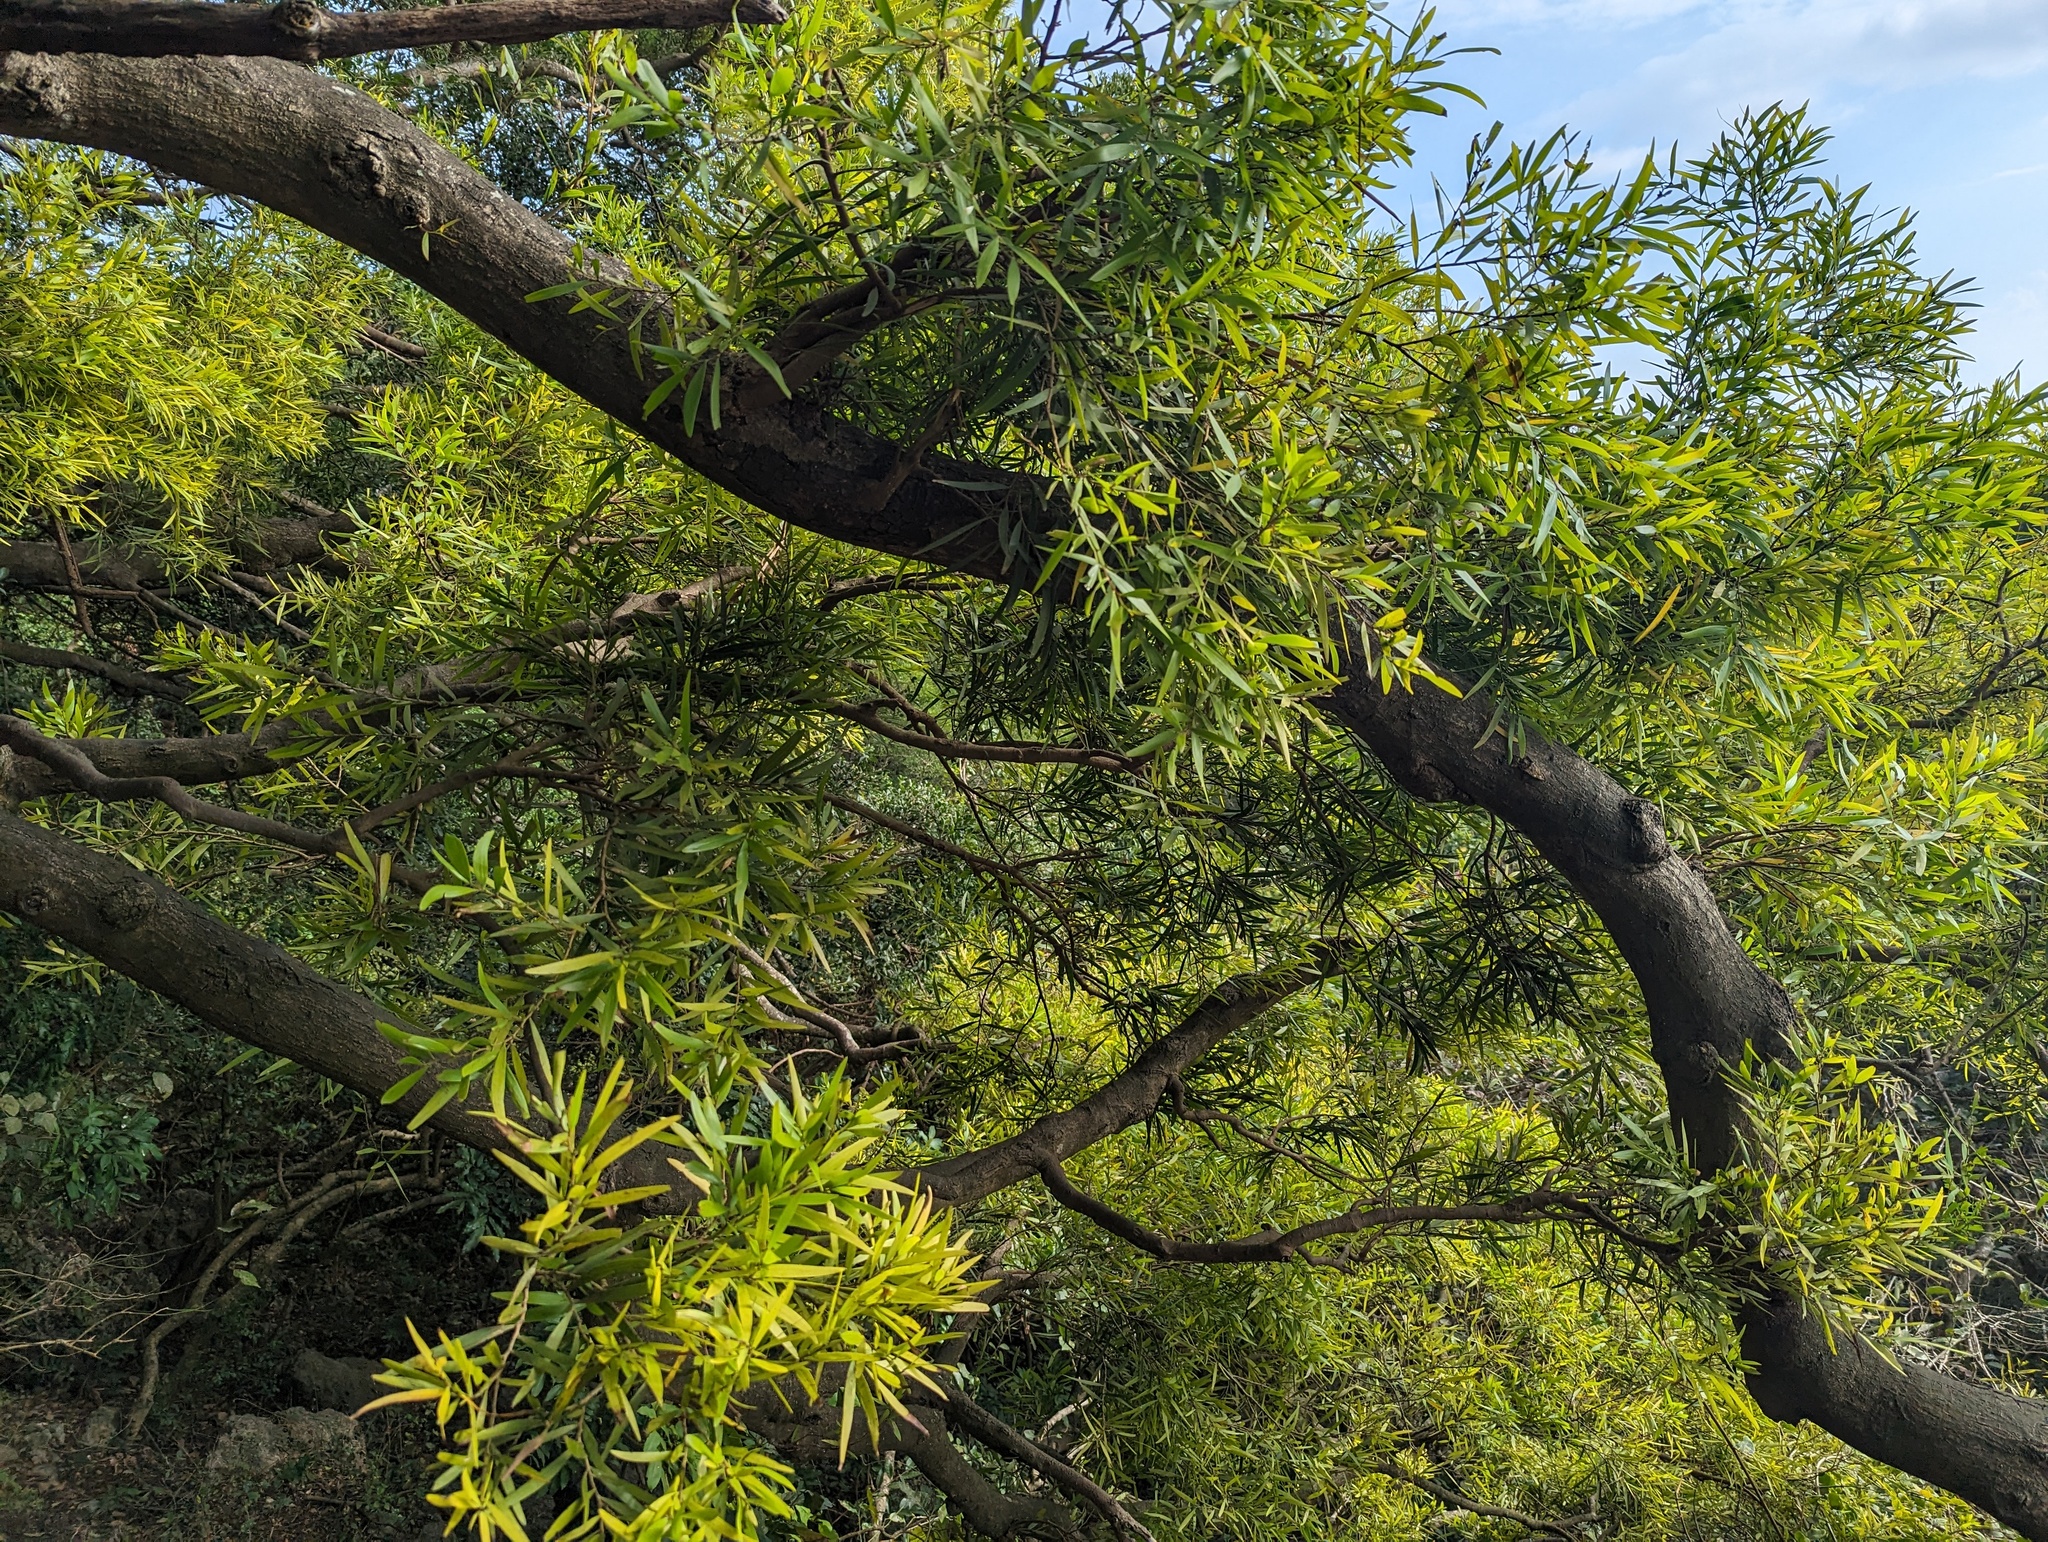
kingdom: Plantae
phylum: Tracheophyta
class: Magnoliopsida
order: Fabales
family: Fabaceae
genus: Acacia
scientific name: Acacia confusa
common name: Formosan koa
